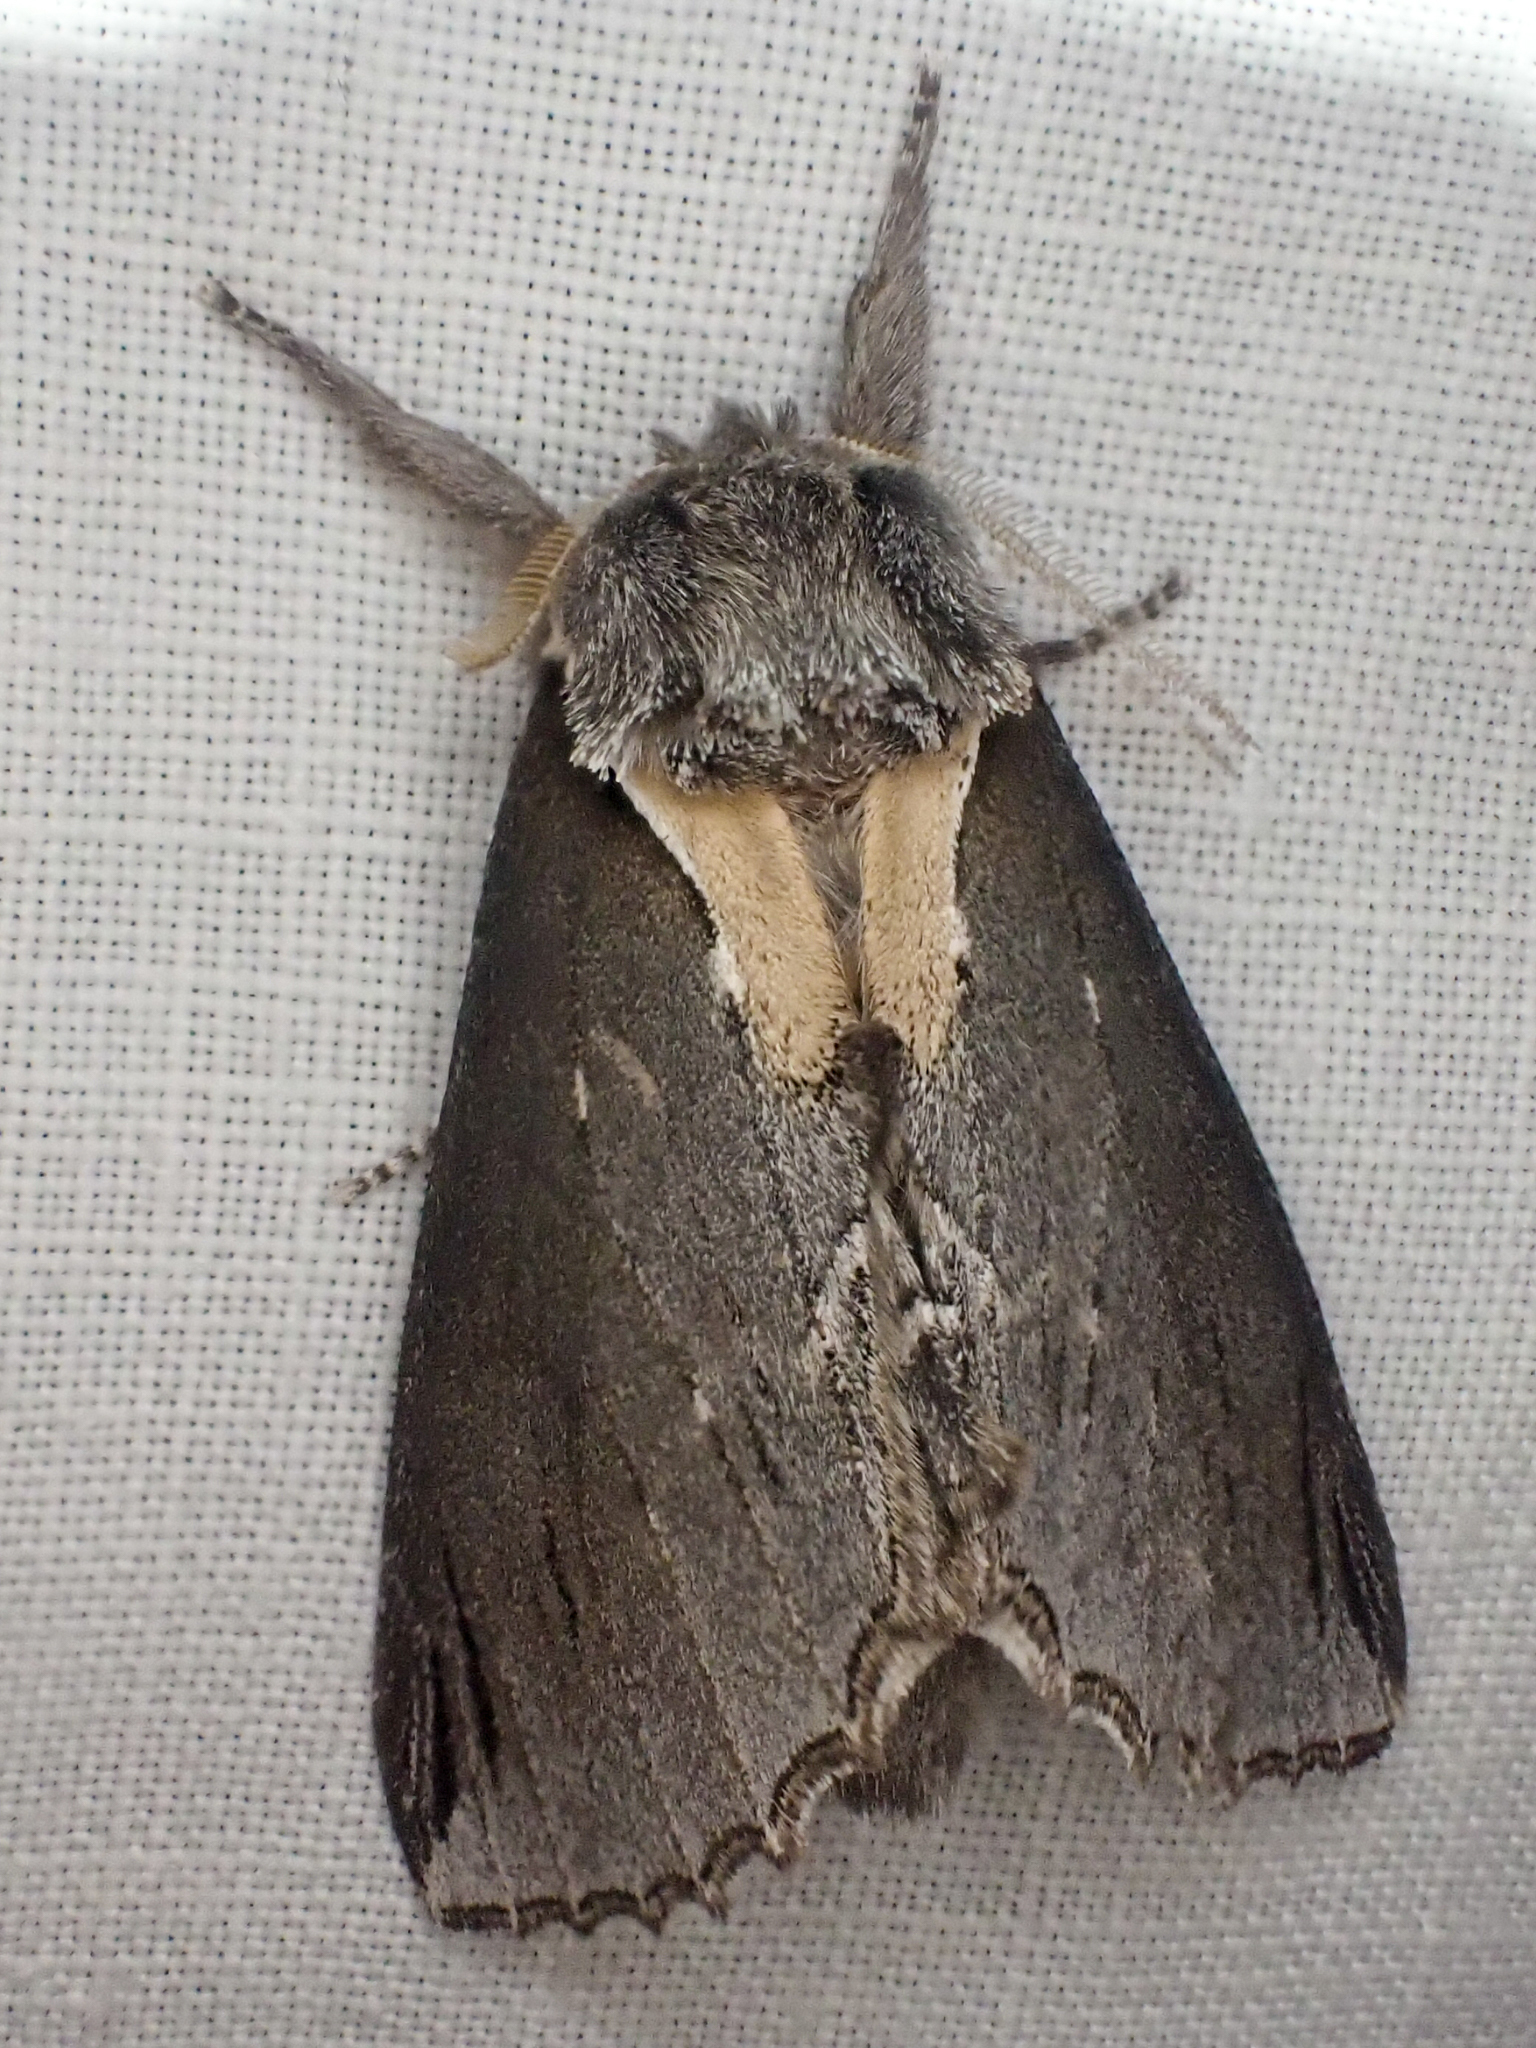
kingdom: Animalia
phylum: Arthropoda
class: Insecta
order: Lepidoptera
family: Notodontidae
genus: Pheosidea
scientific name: Pheosidea elegans
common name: Elegant prominent
